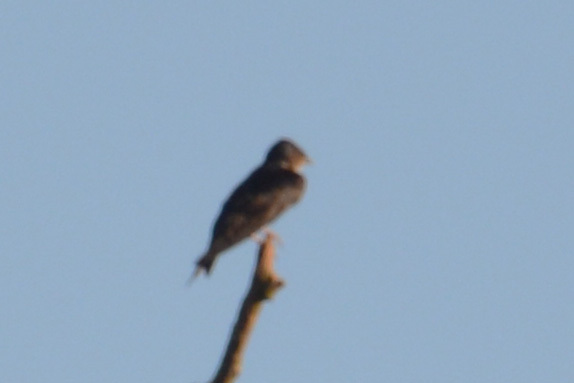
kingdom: Animalia
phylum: Chordata
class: Aves
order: Passeriformes
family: Hirundinidae
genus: Stelgidopteryx
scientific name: Stelgidopteryx ruficollis
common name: Southern rough-winged swallow
